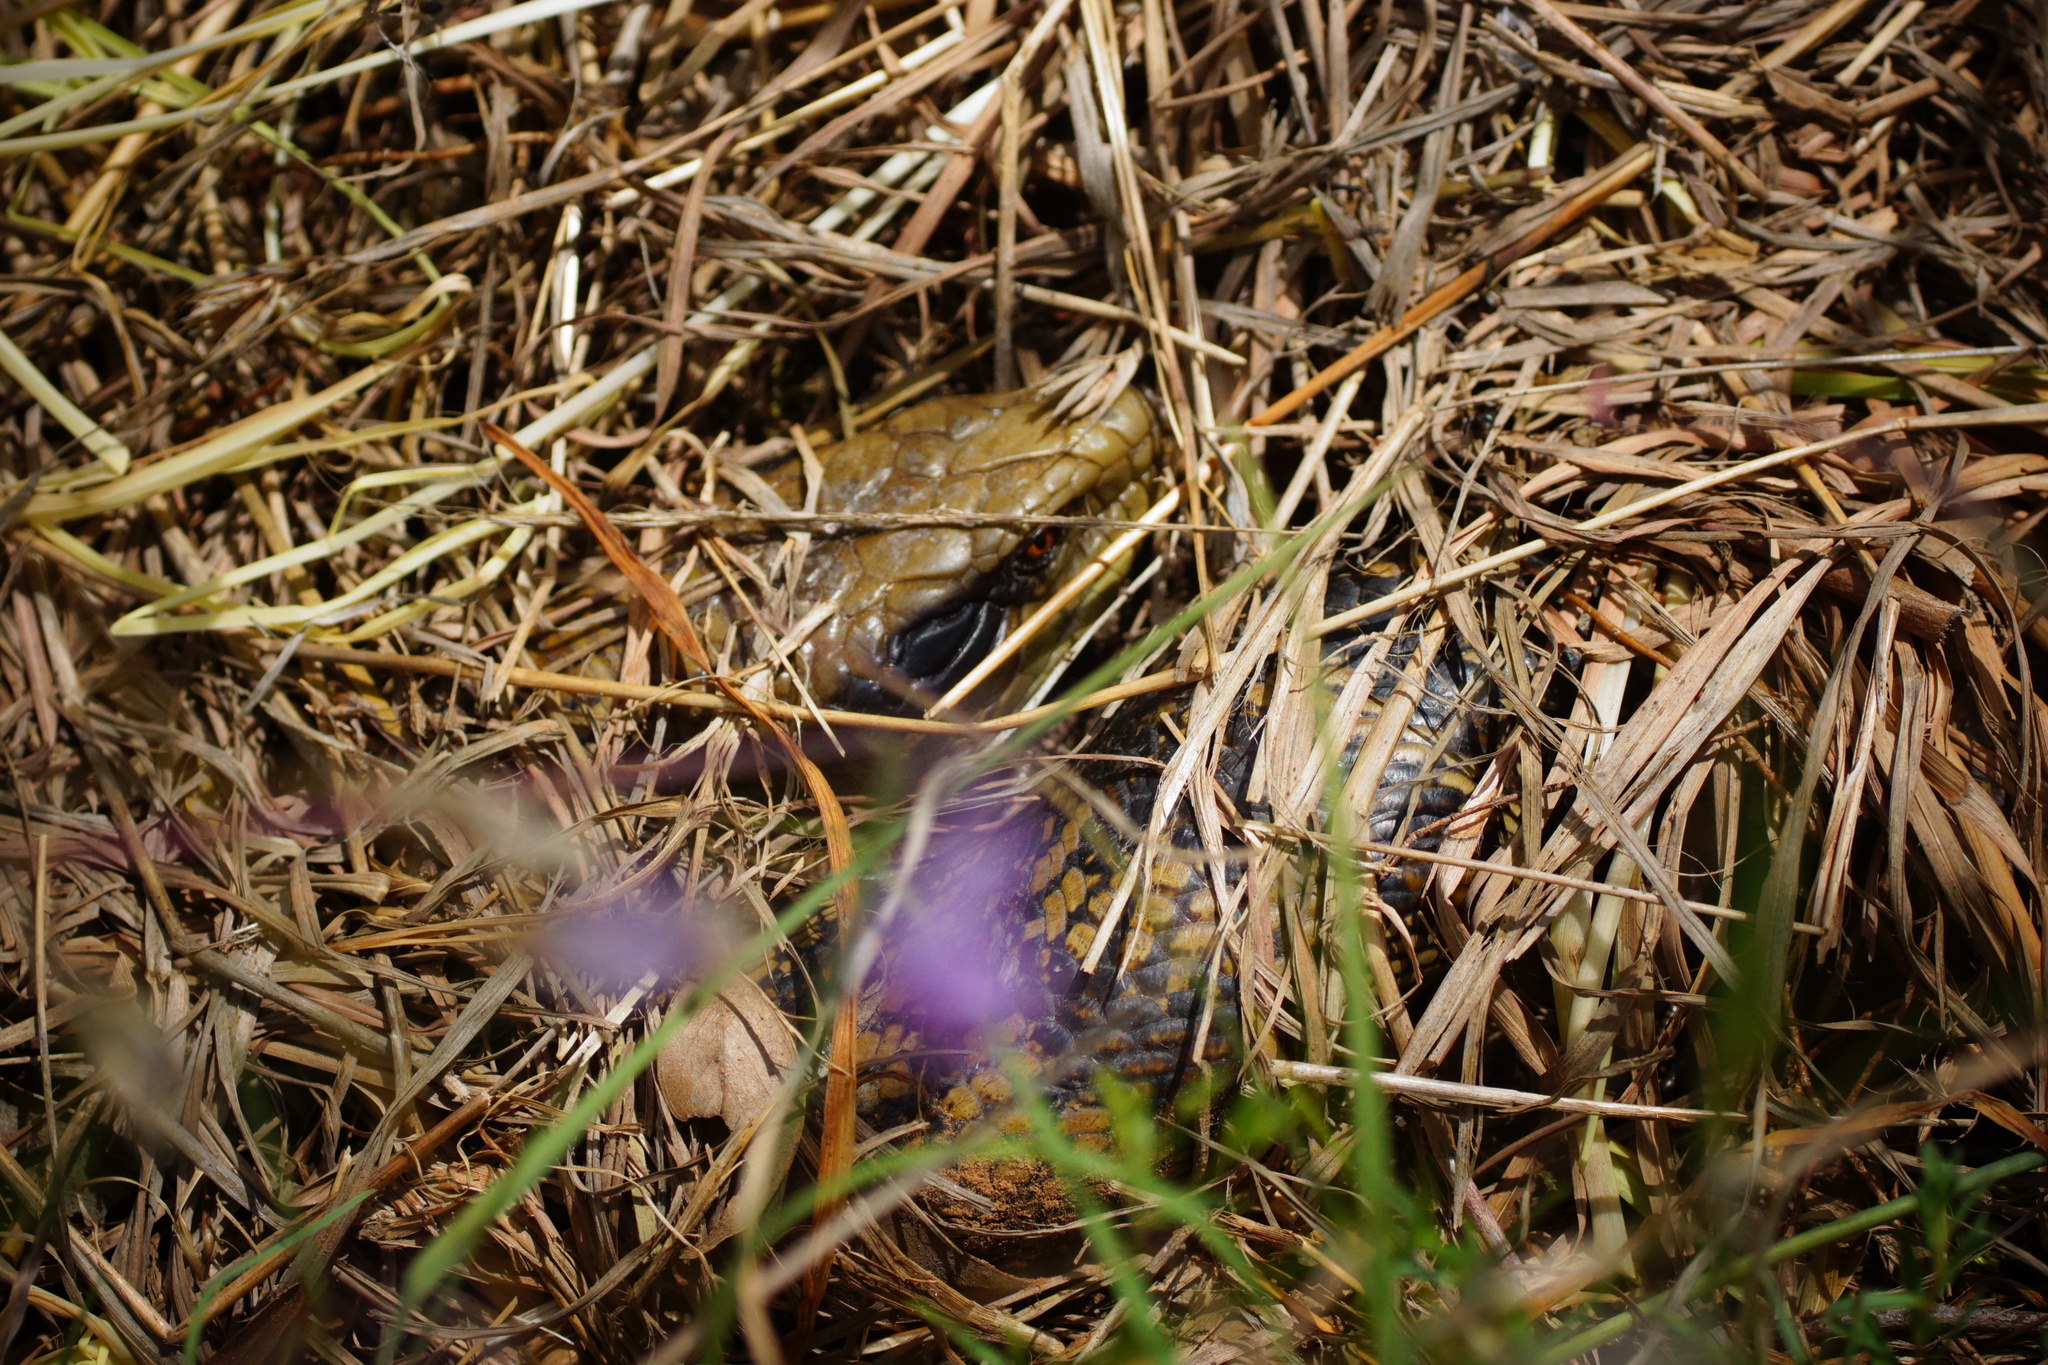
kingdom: Animalia
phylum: Chordata
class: Squamata
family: Scincidae
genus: Tiliqua
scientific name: Tiliqua scincoides
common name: Common bluetongue
